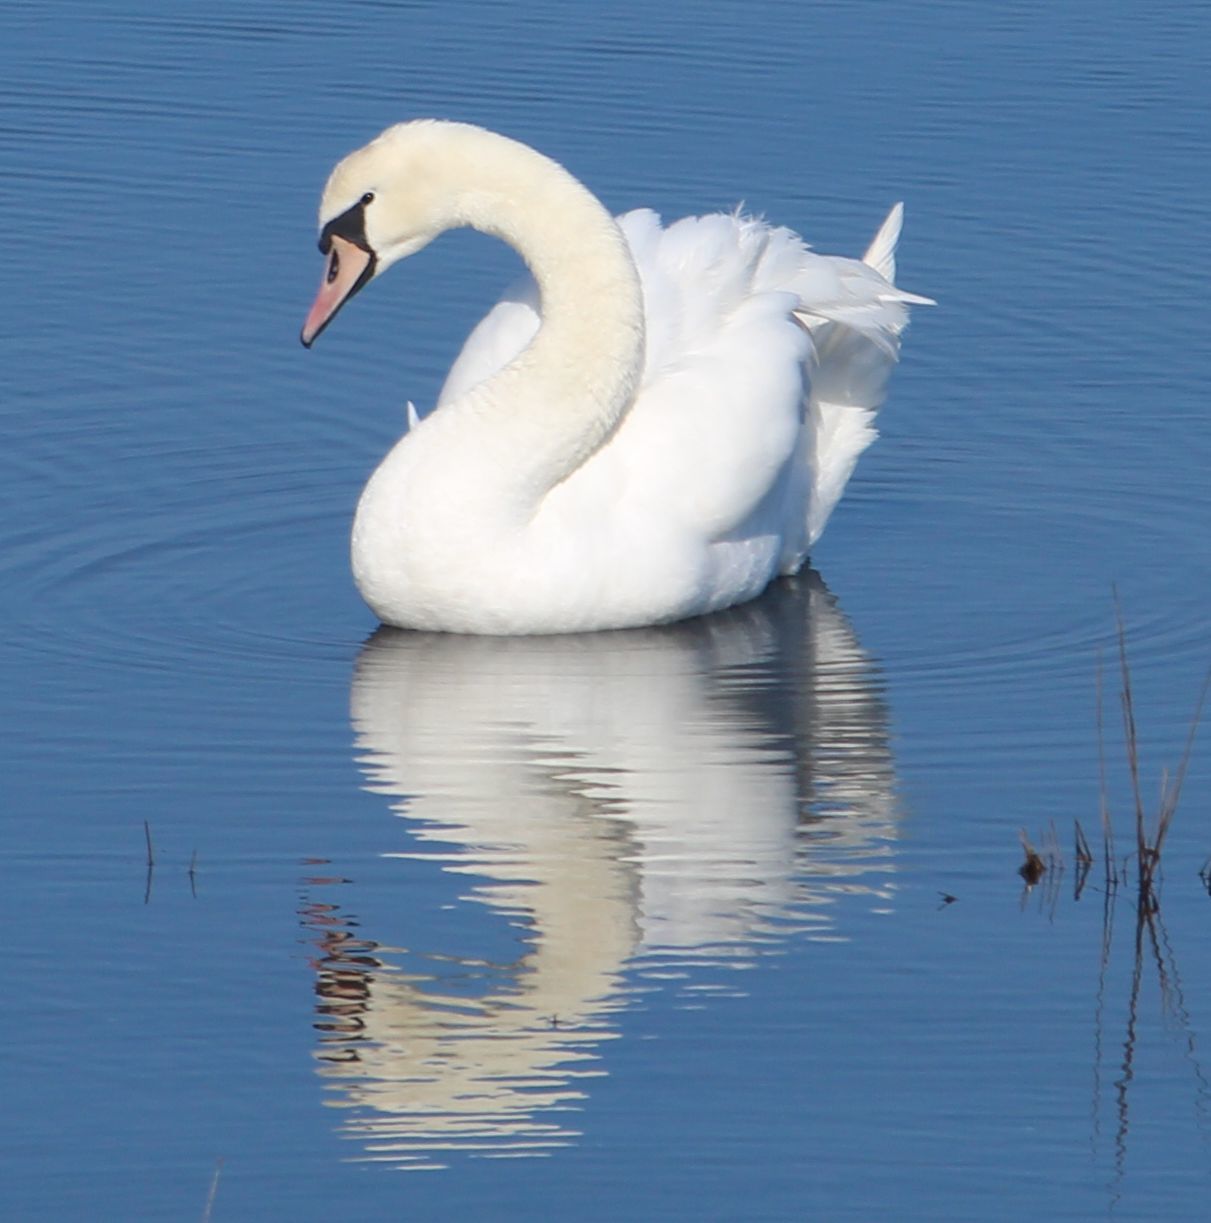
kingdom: Animalia
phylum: Chordata
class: Aves
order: Anseriformes
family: Anatidae
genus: Cygnus
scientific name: Cygnus olor
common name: Mute swan
